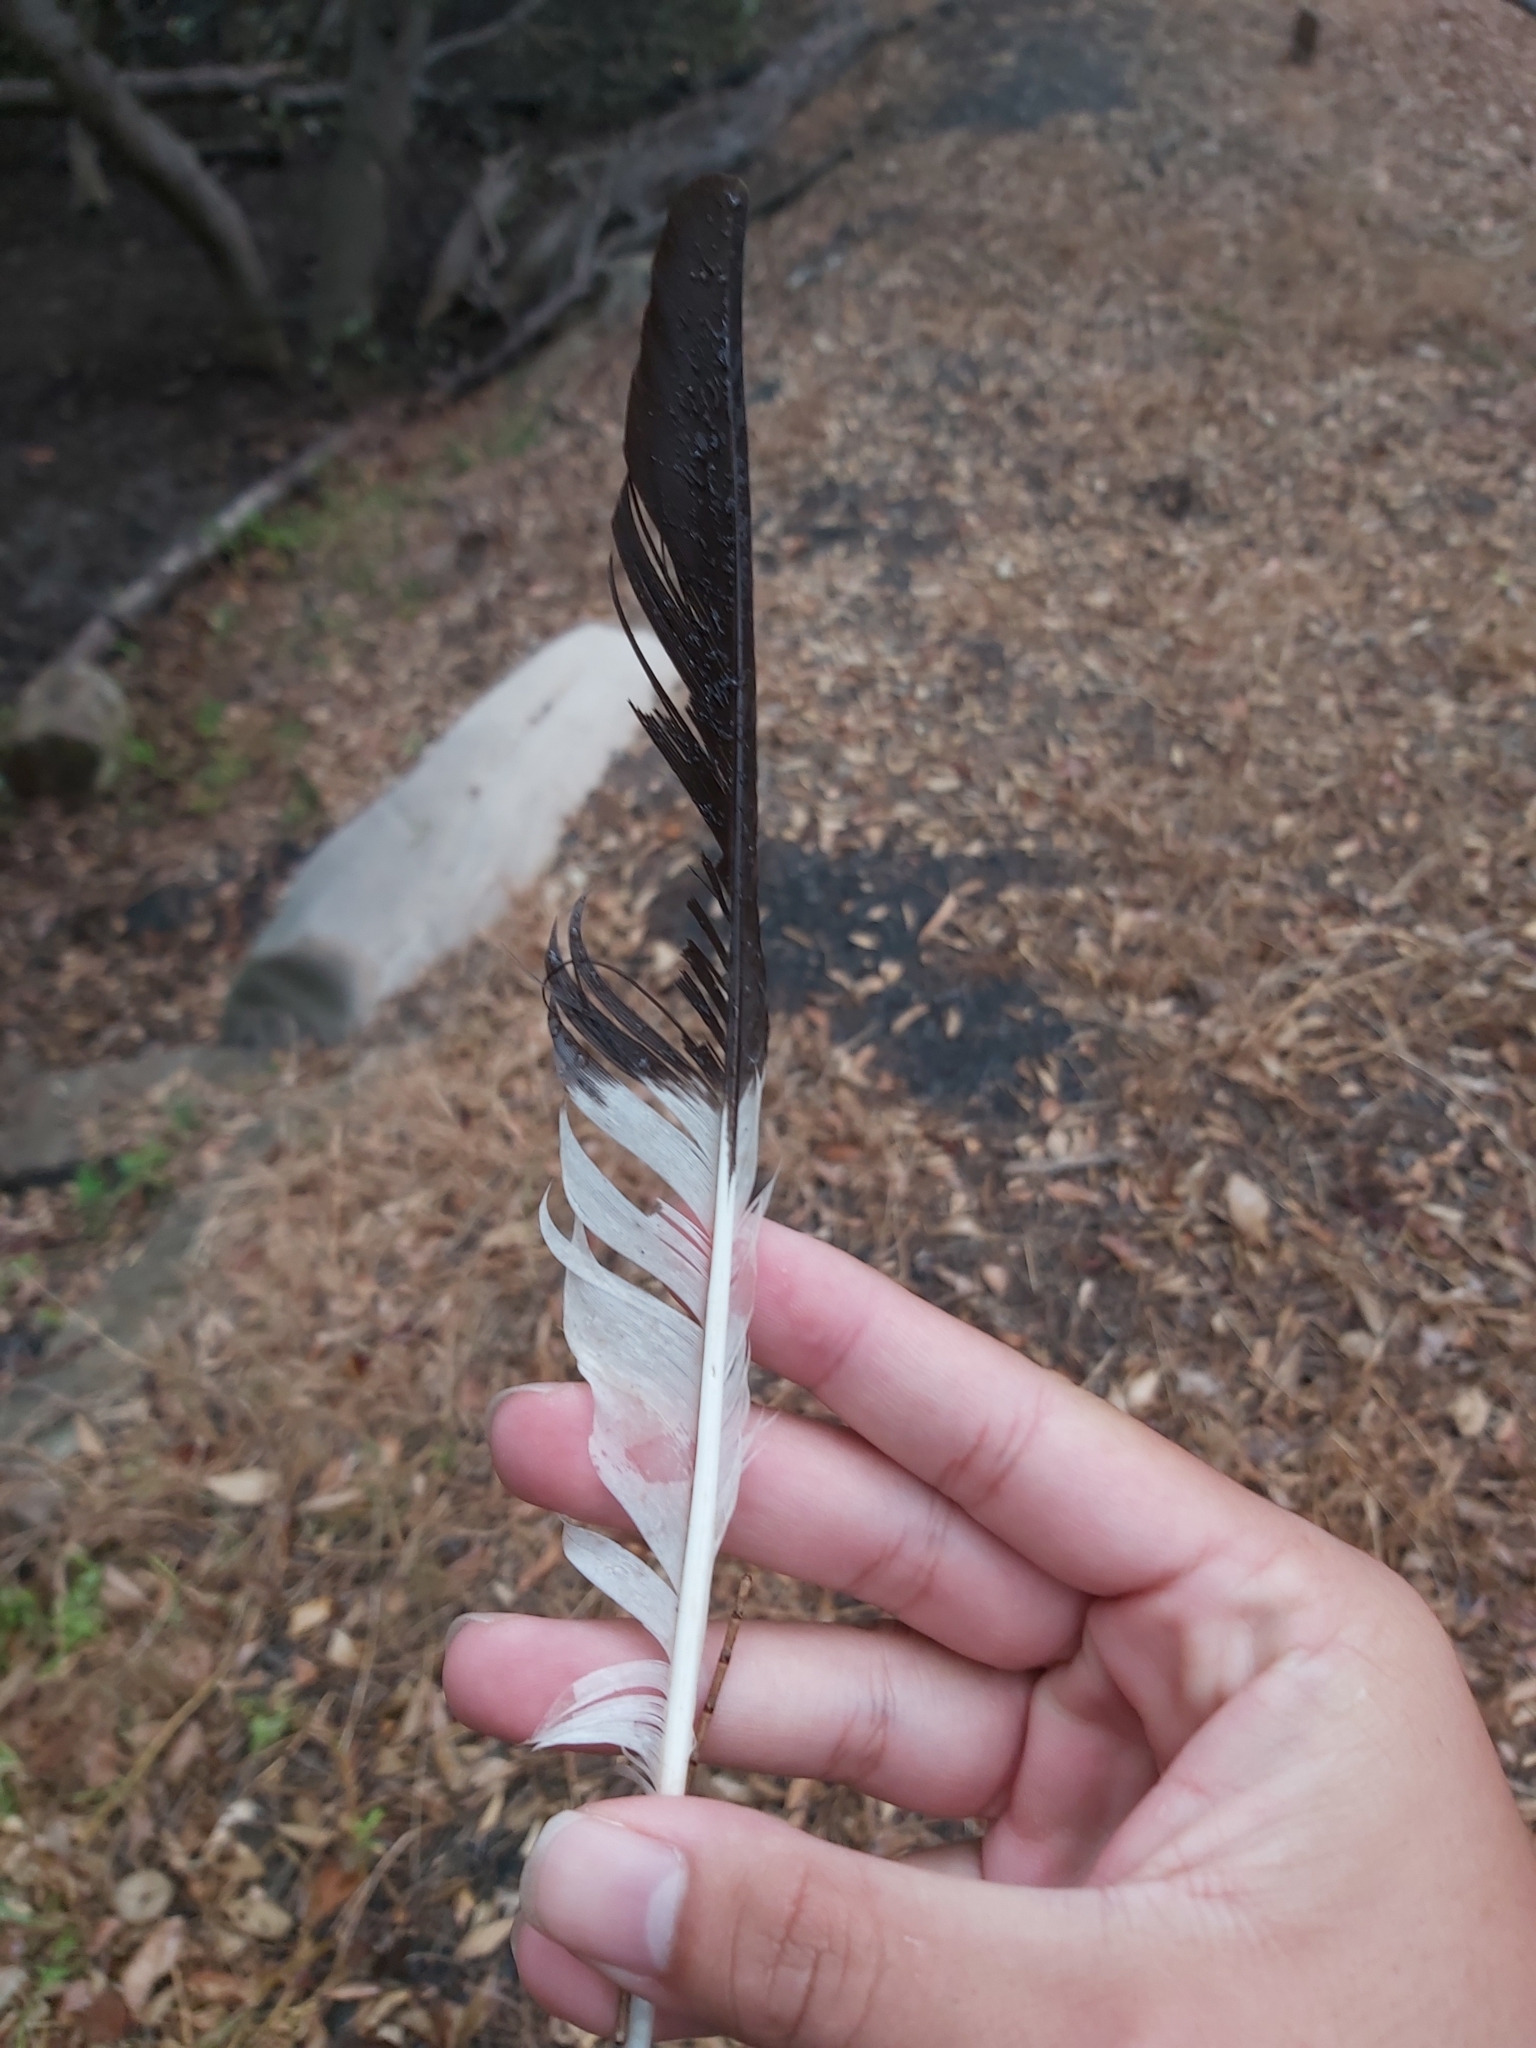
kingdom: Animalia
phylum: Chordata
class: Aves
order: Passeriformes
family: Cracticidae
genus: Strepera
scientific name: Strepera graculina
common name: Pied currawong
